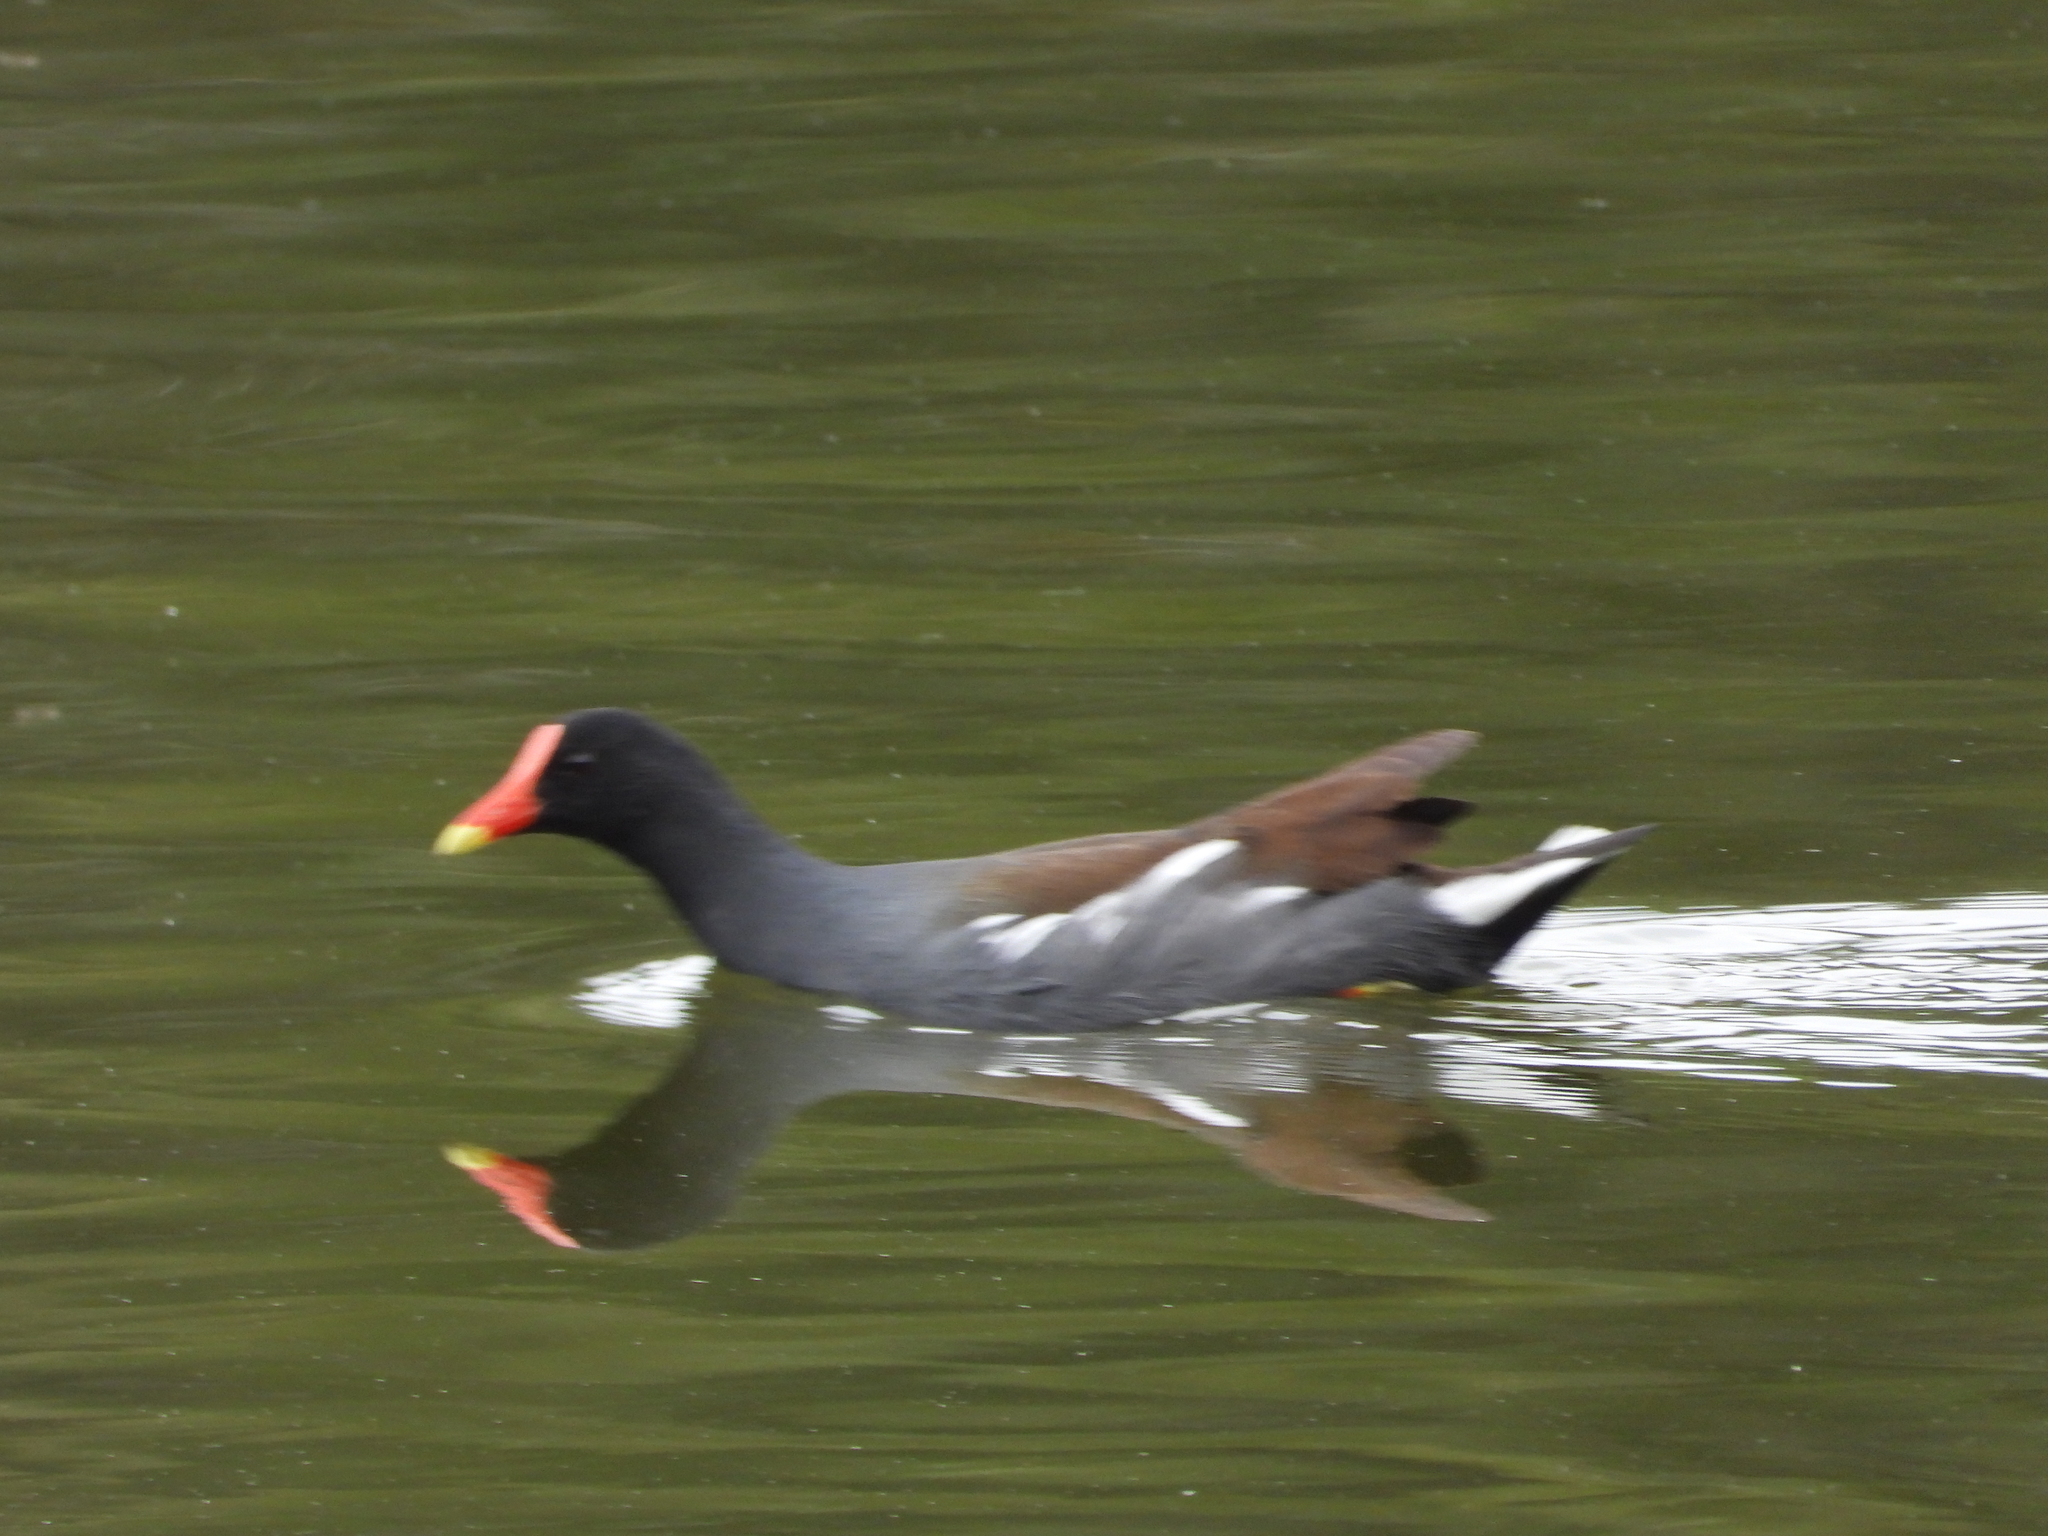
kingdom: Animalia
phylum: Chordata
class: Aves
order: Gruiformes
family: Rallidae
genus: Gallinula
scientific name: Gallinula chloropus
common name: Common moorhen
